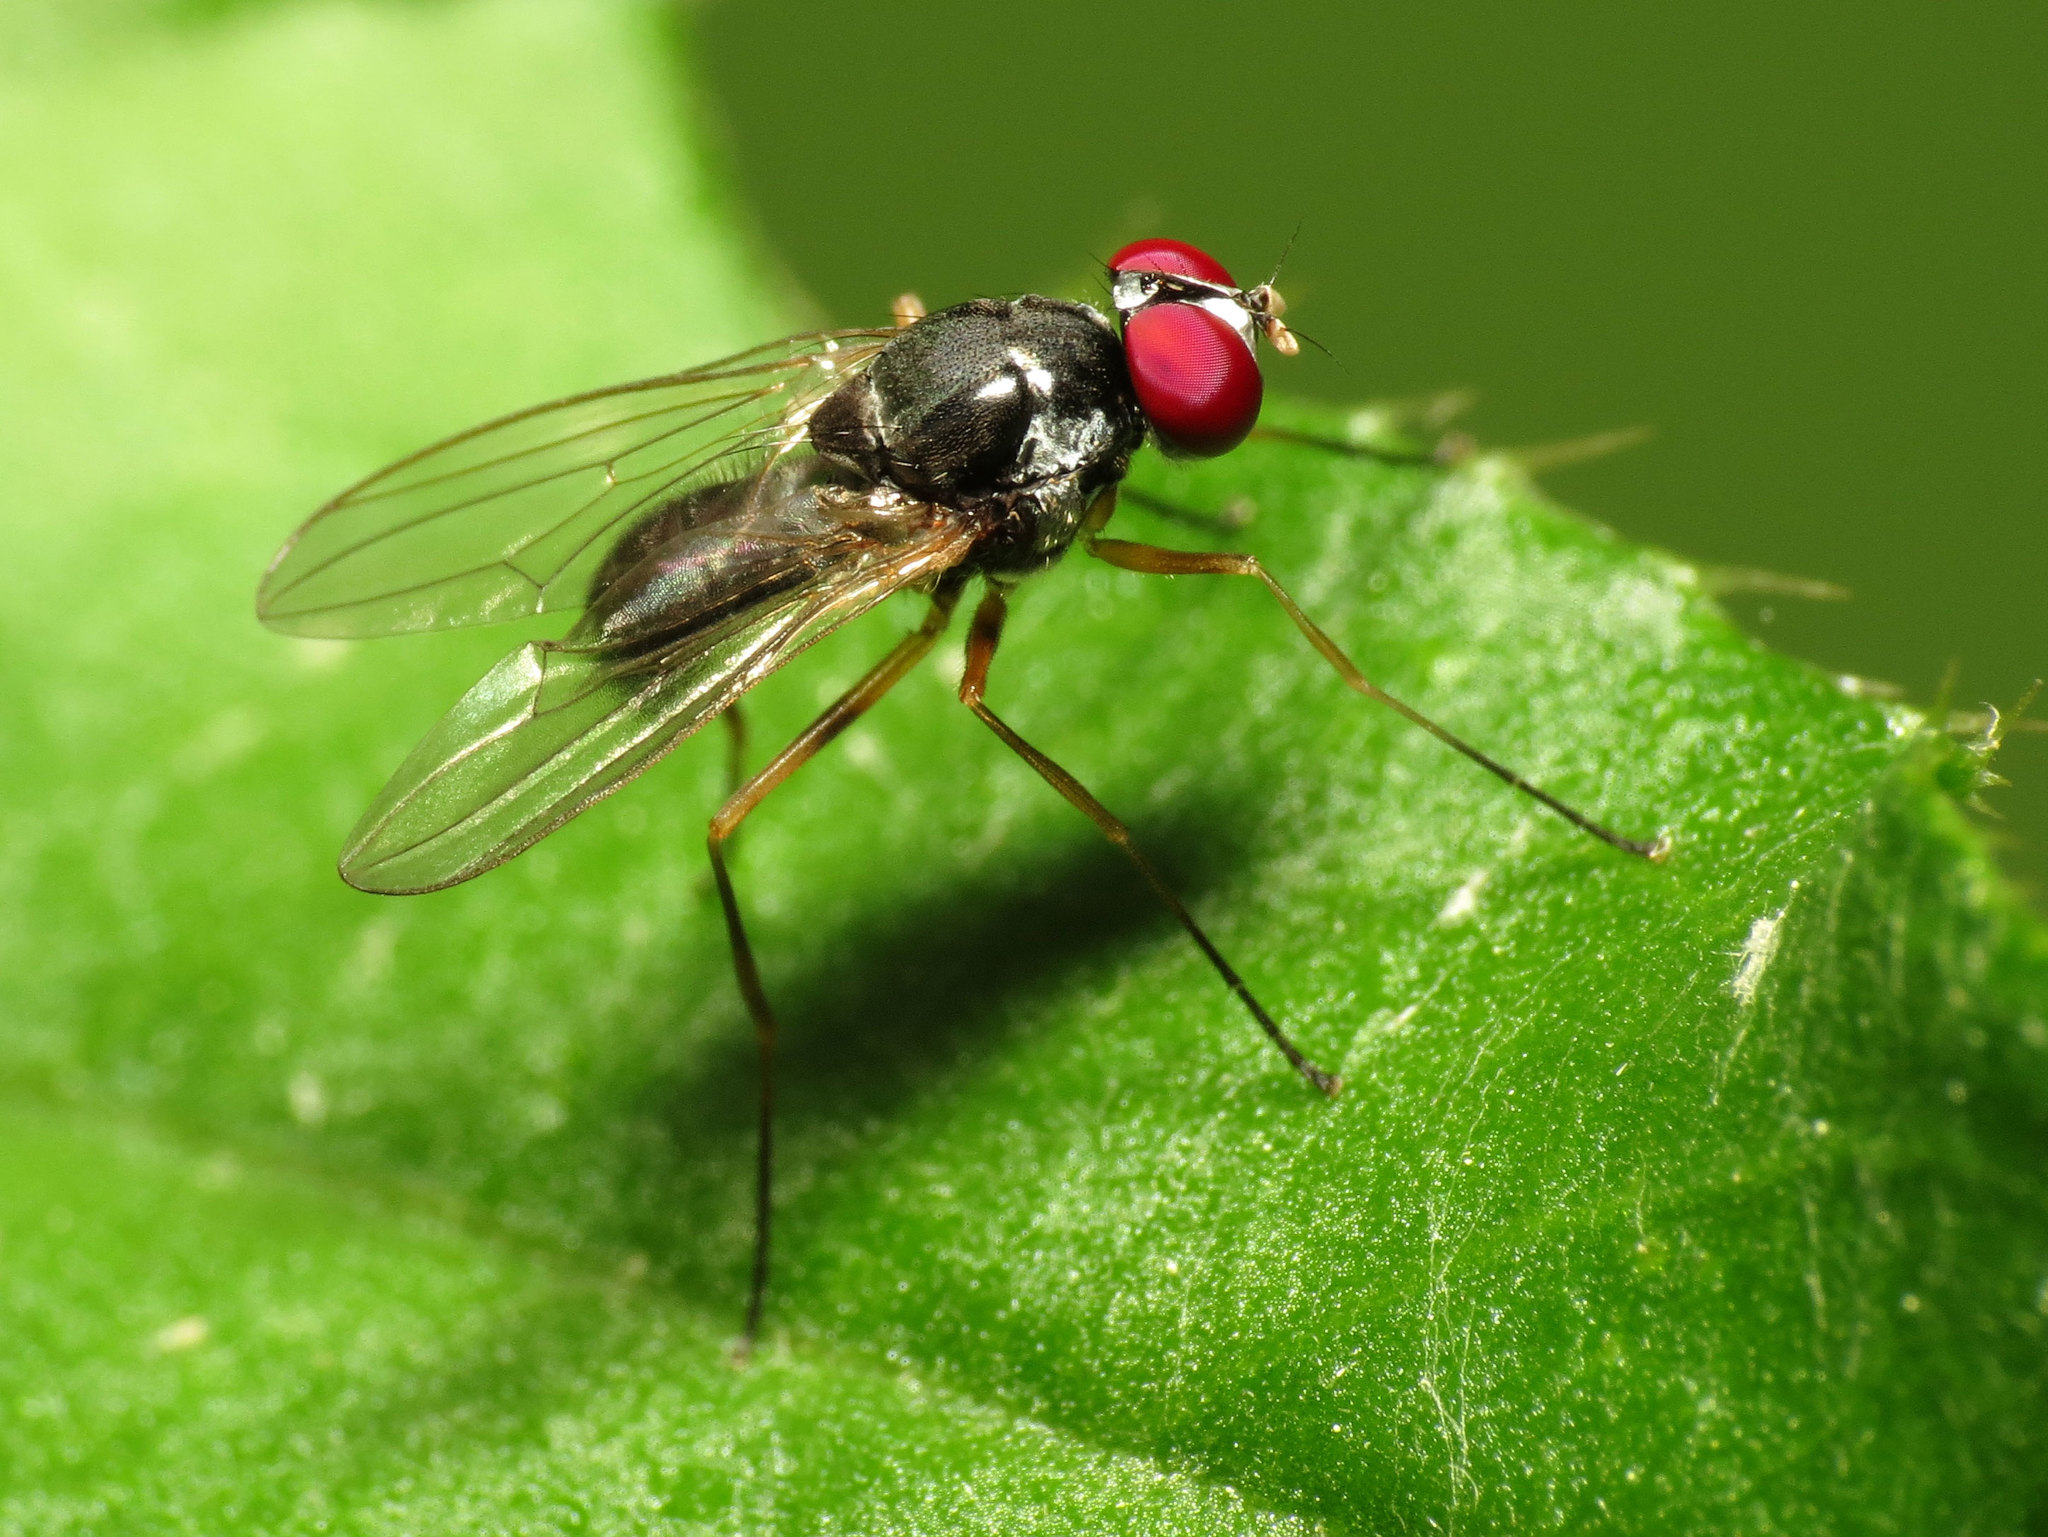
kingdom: Animalia
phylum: Arthropoda
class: Insecta
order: Diptera
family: Tanypezidae
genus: Tanypeza
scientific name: Tanypeza picticornis
